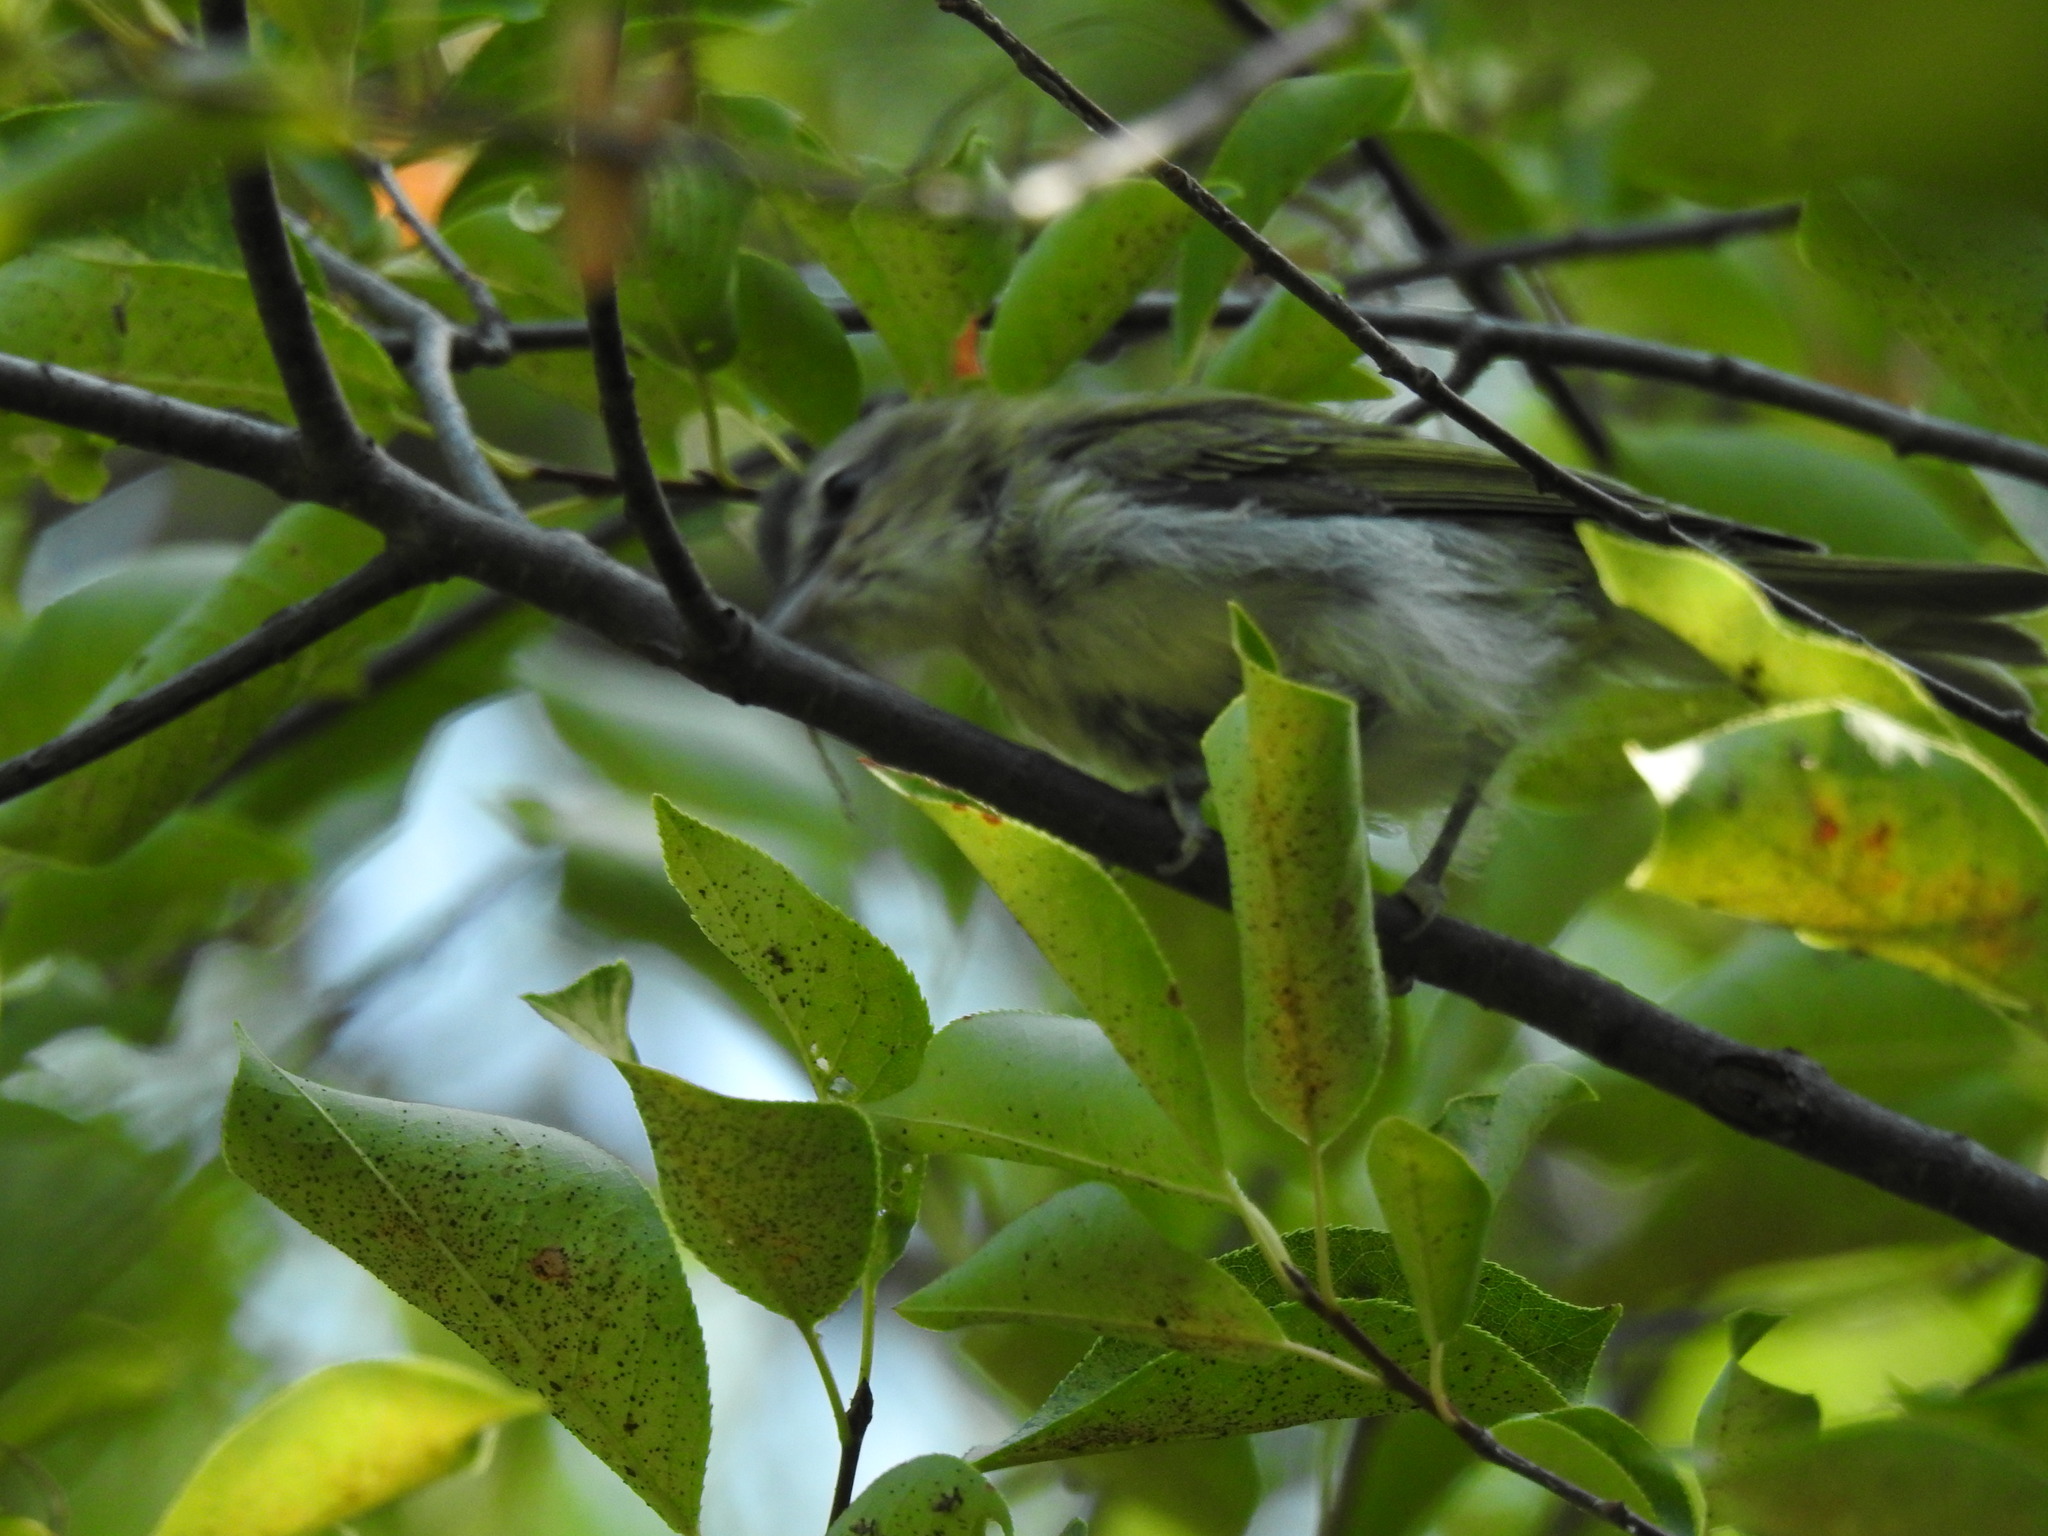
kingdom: Animalia
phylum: Chordata
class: Aves
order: Passeriformes
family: Vireonidae
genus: Vireo
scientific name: Vireo olivaceus
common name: Red-eyed vireo
